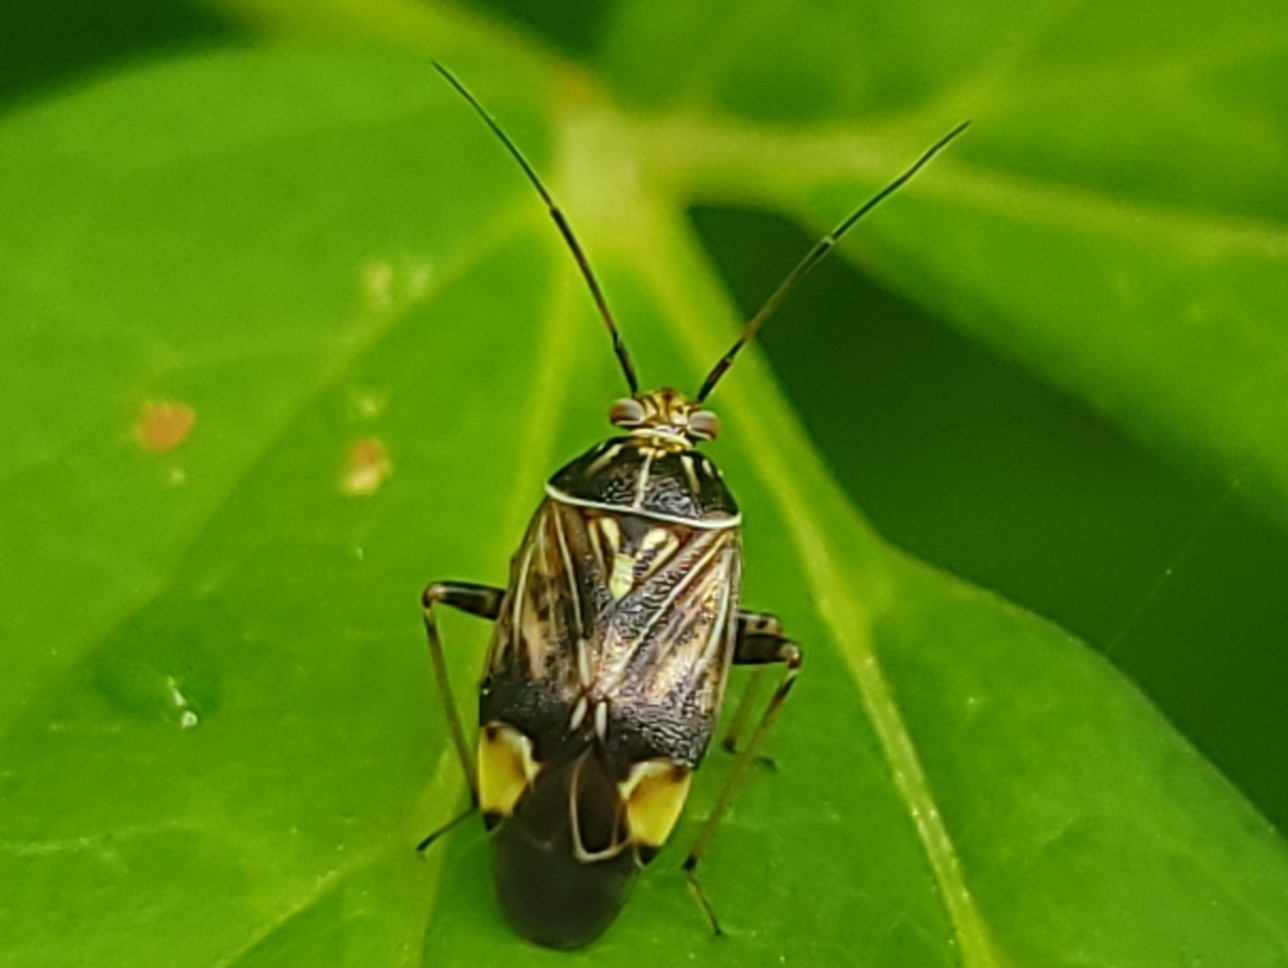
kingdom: Animalia
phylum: Arthropoda
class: Insecta
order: Hemiptera
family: Miridae
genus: Lygus
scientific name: Lygus lineolaris
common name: North american tarnished plant bug
